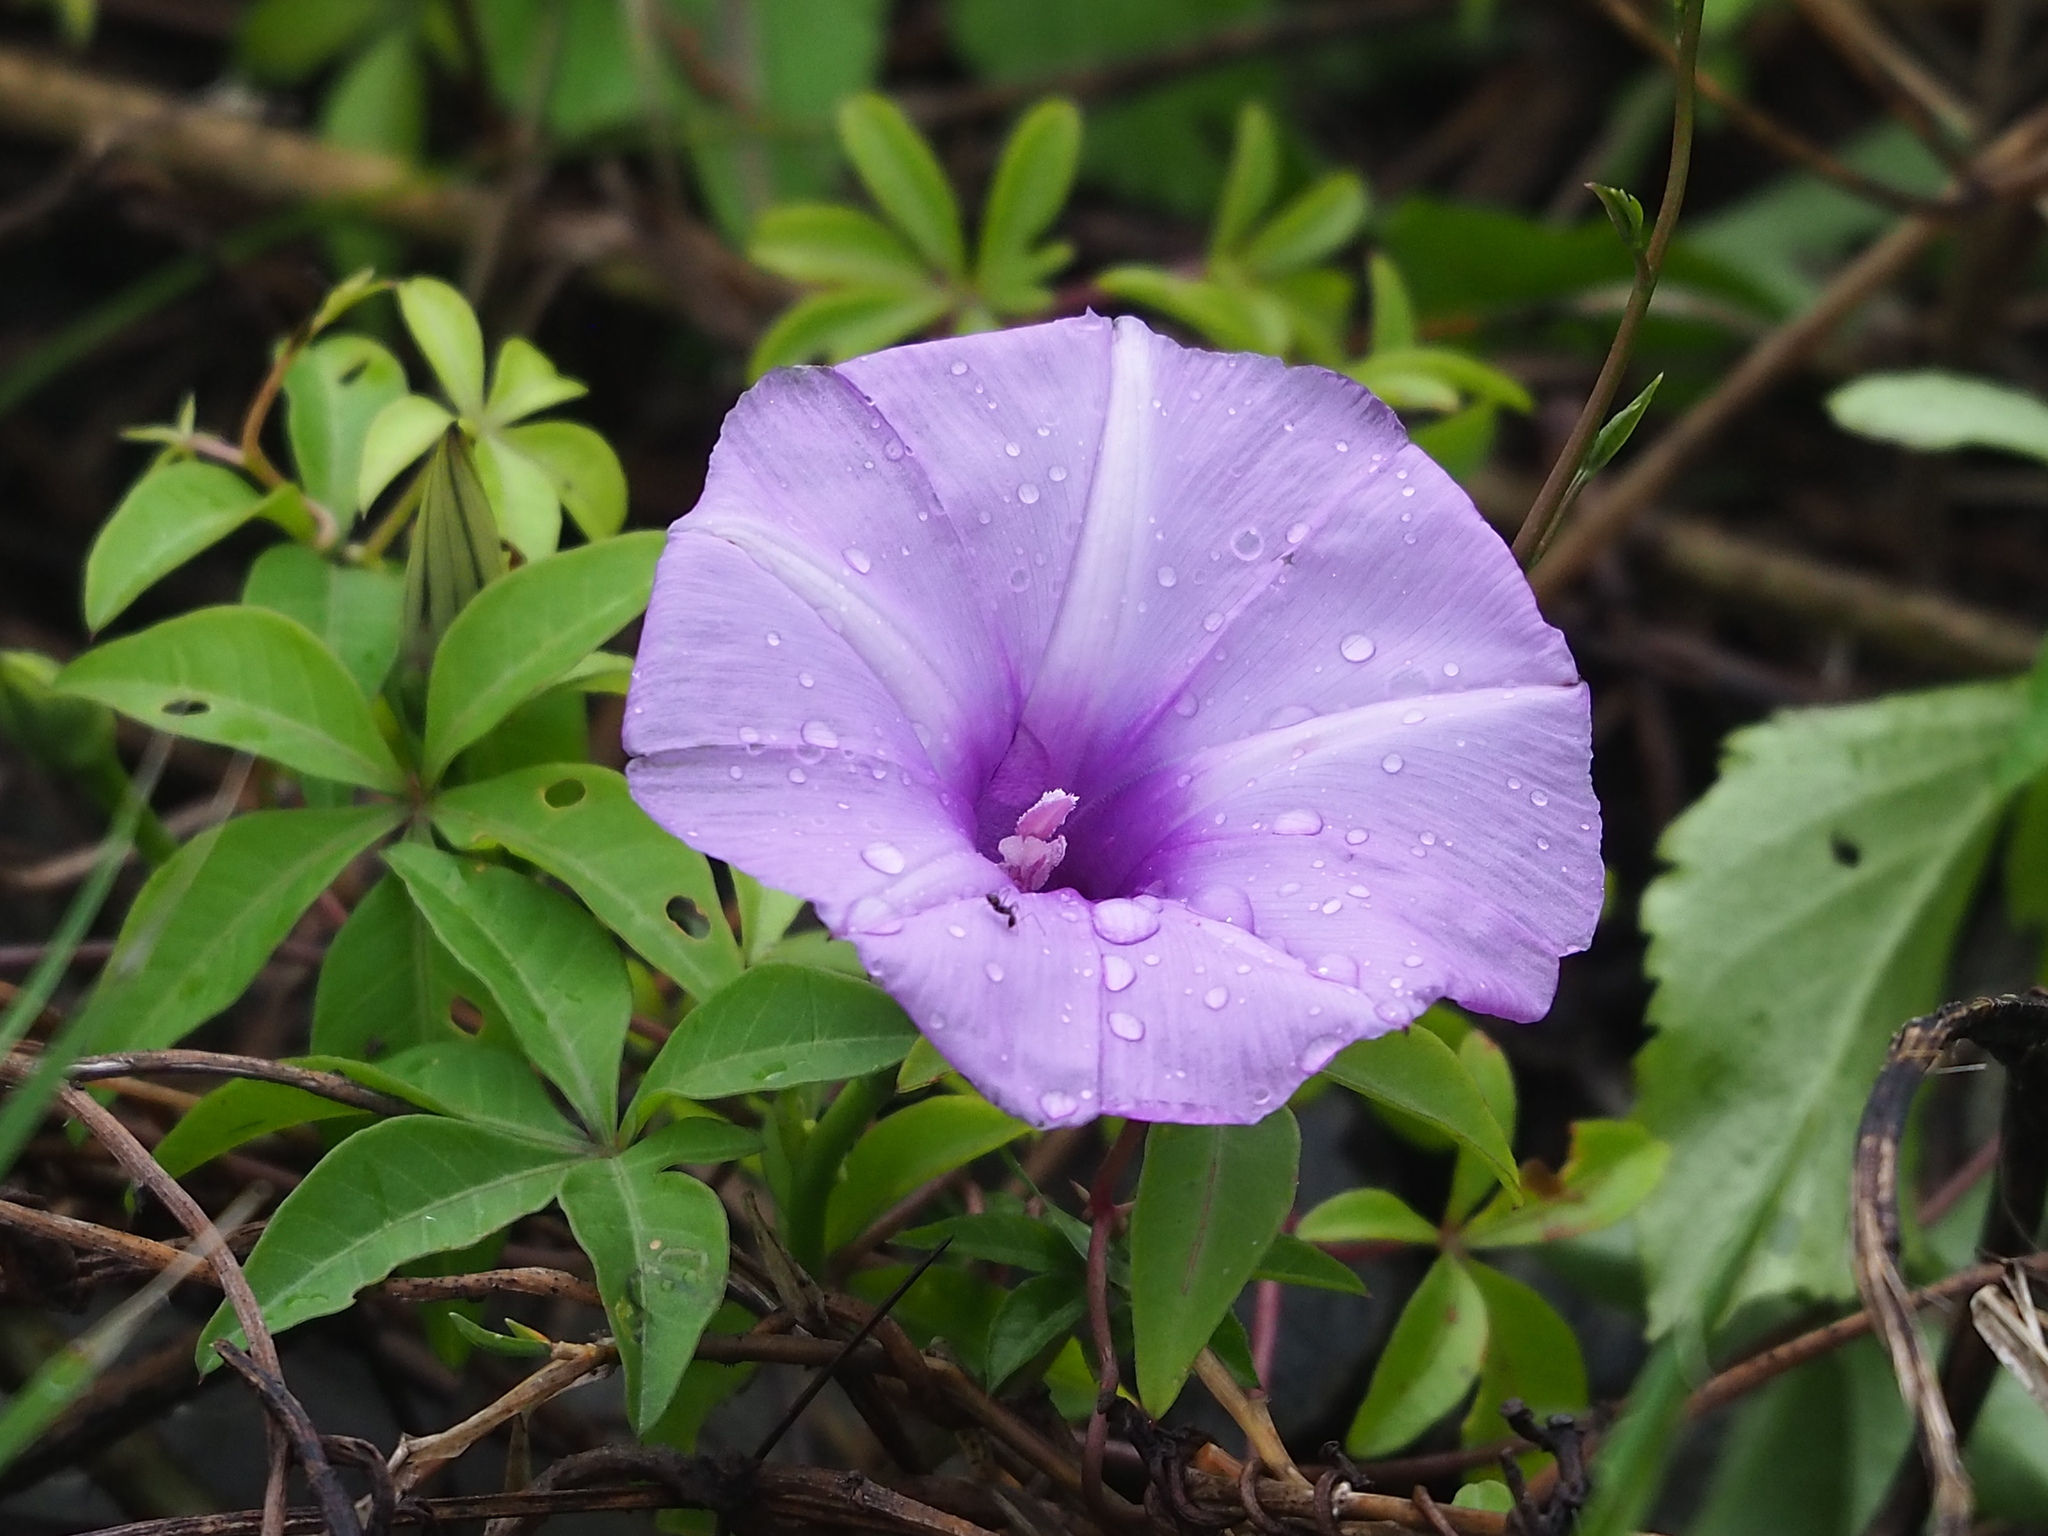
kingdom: Plantae
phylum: Tracheophyta
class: Magnoliopsida
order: Solanales
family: Convolvulaceae
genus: Ipomoea
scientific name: Ipomoea cairica
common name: Mile a minute vine
